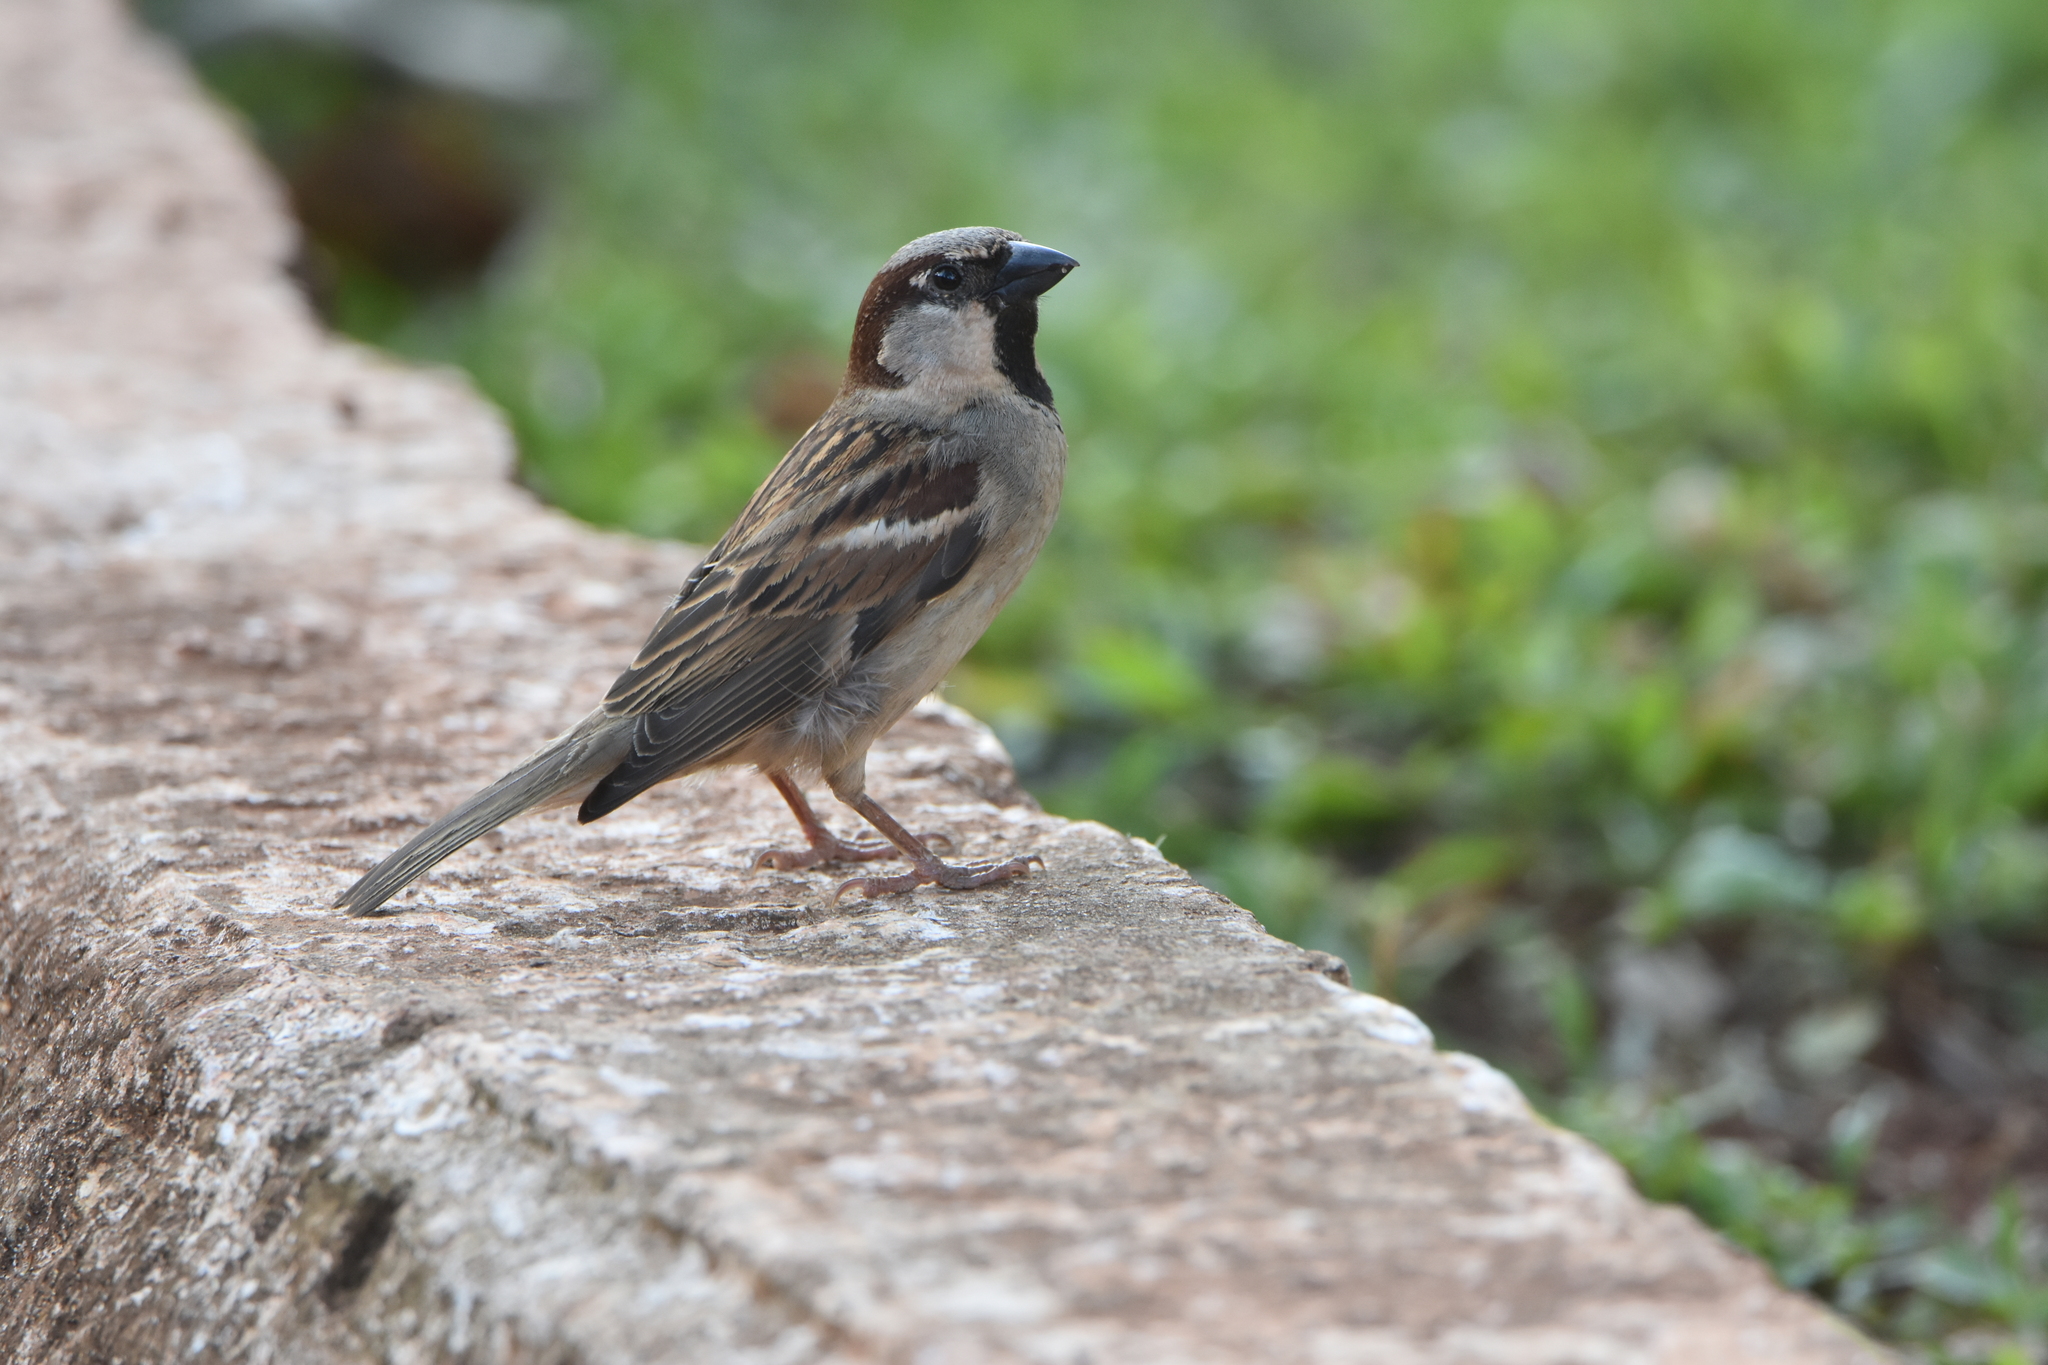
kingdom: Animalia
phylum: Chordata
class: Aves
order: Passeriformes
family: Passeridae
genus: Passer
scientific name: Passer domesticus
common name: House sparrow
